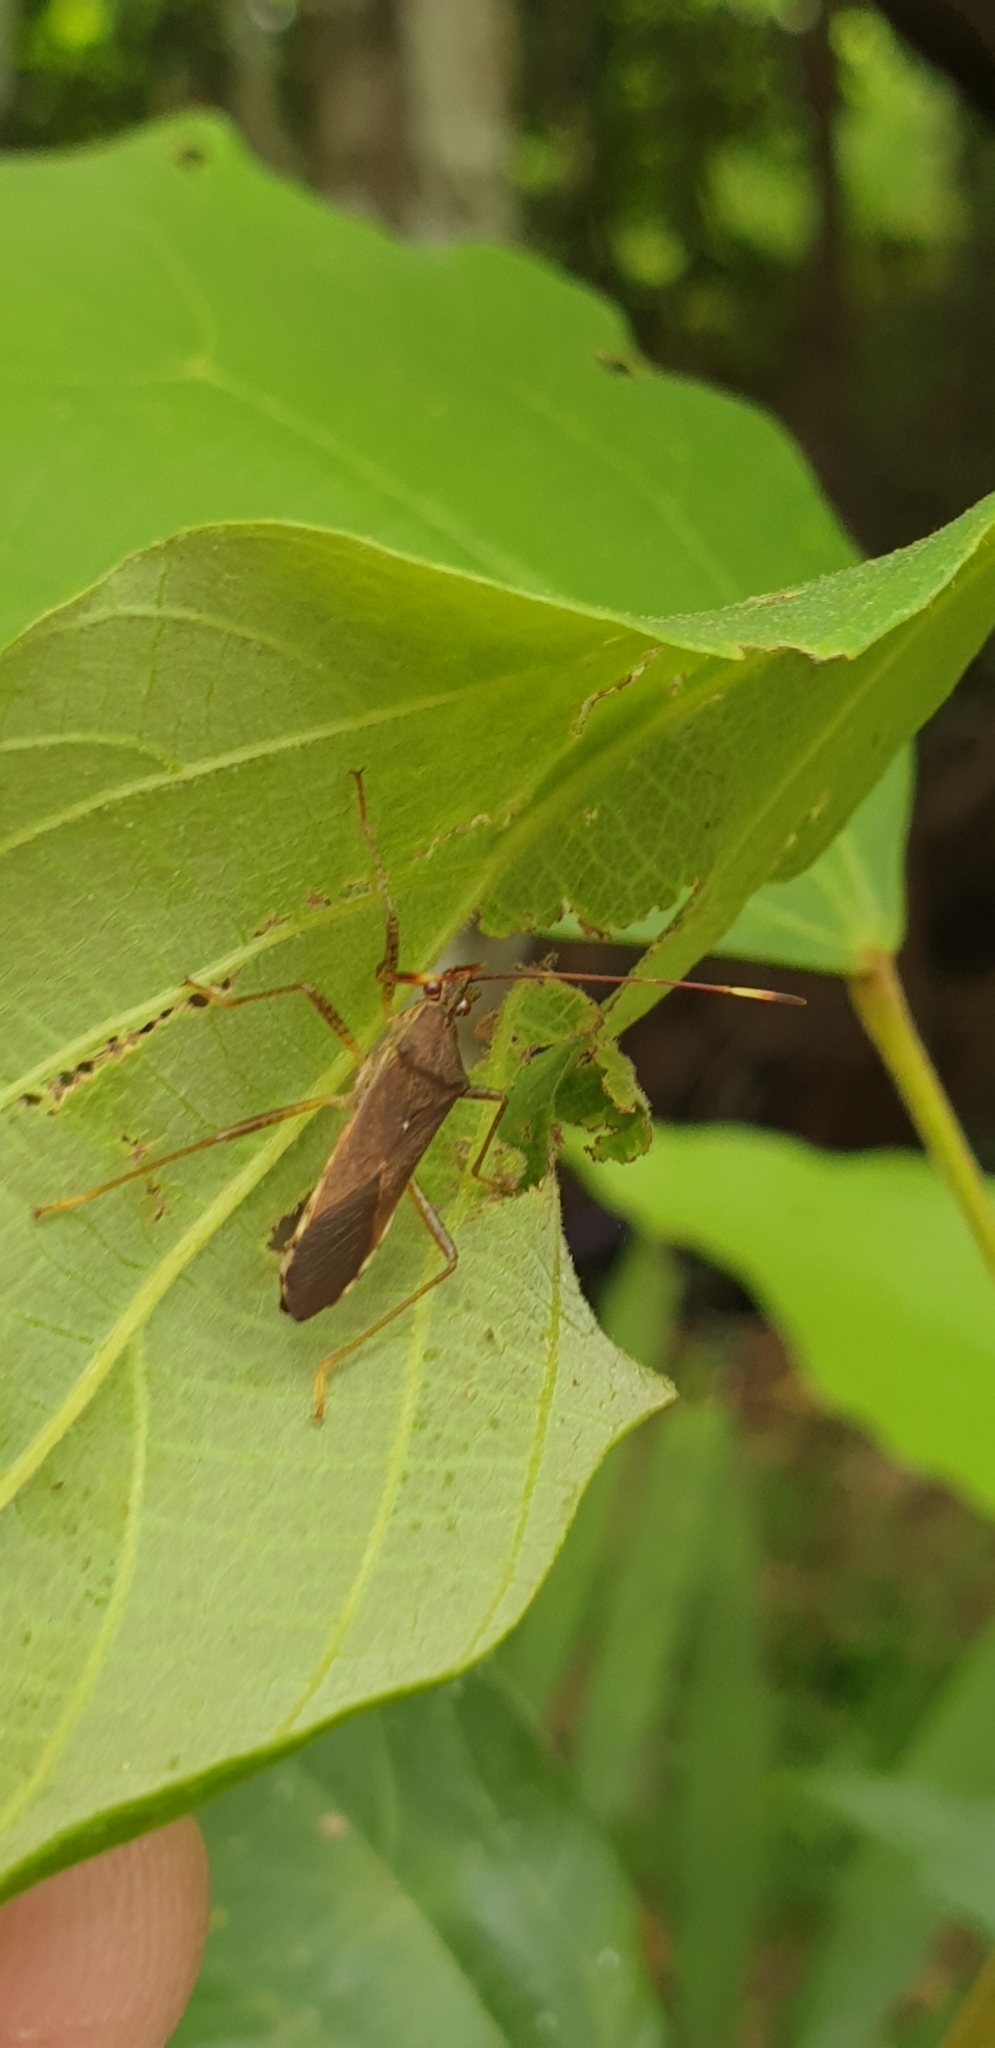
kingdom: Animalia
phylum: Arthropoda
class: Insecta
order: Hemiptera
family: Coreidae
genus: Dasynus
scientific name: Dasynus cephalotus
